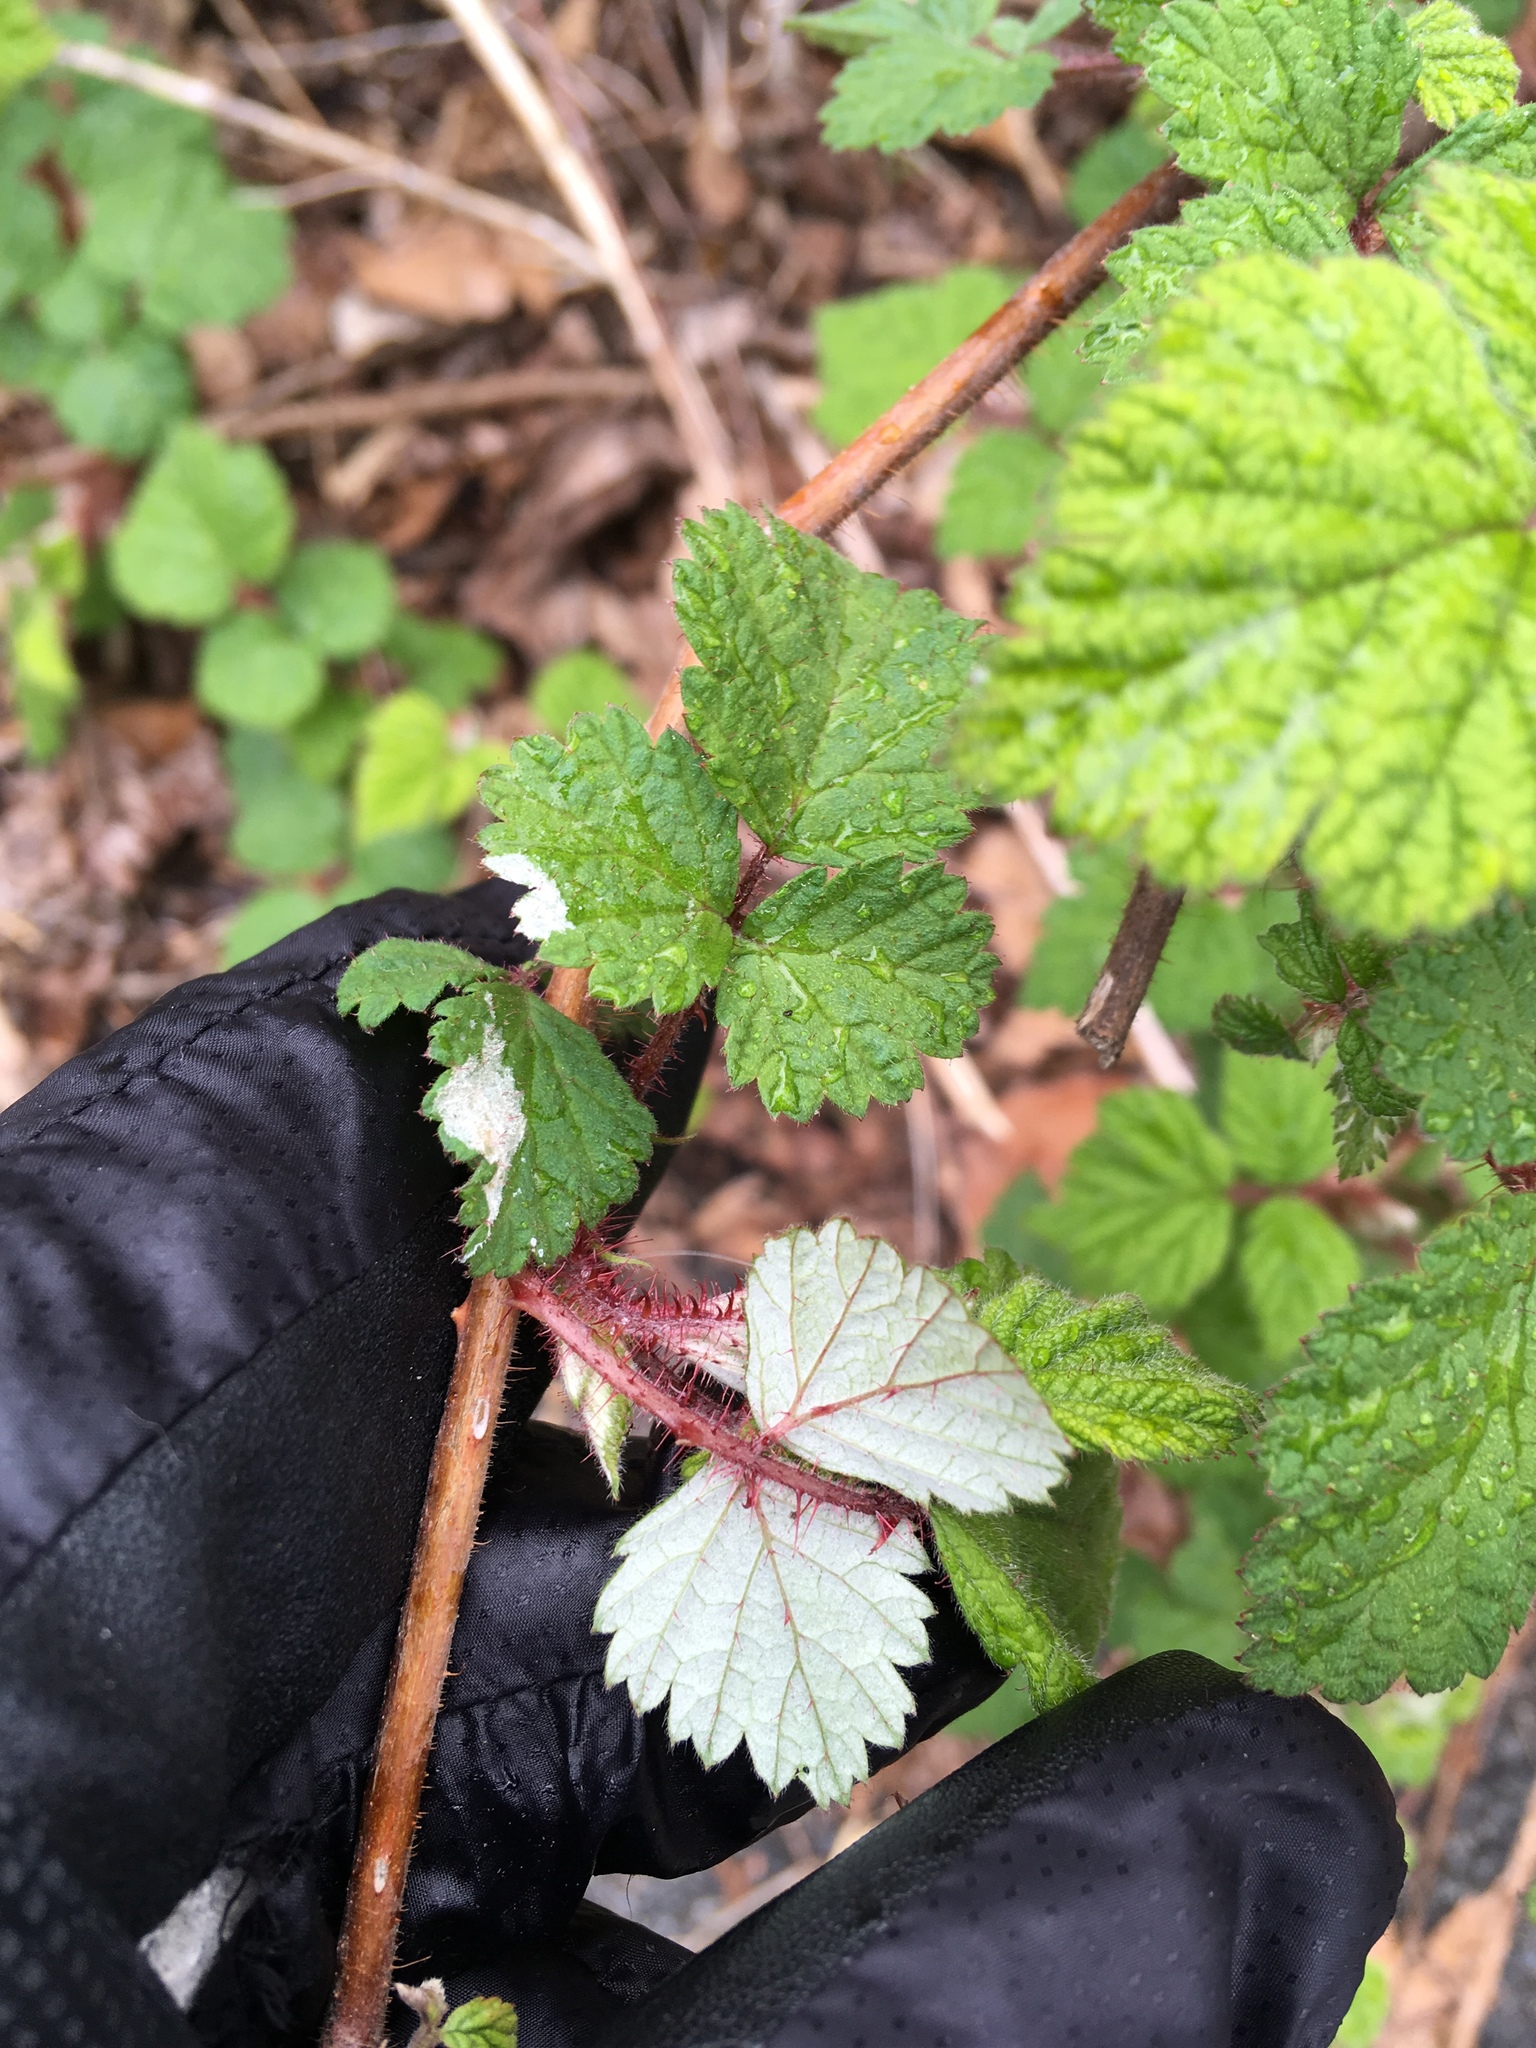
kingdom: Plantae
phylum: Tracheophyta
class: Magnoliopsida
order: Rosales
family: Rosaceae
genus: Rubus
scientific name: Rubus phoenicolasius
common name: Japanese wineberry
